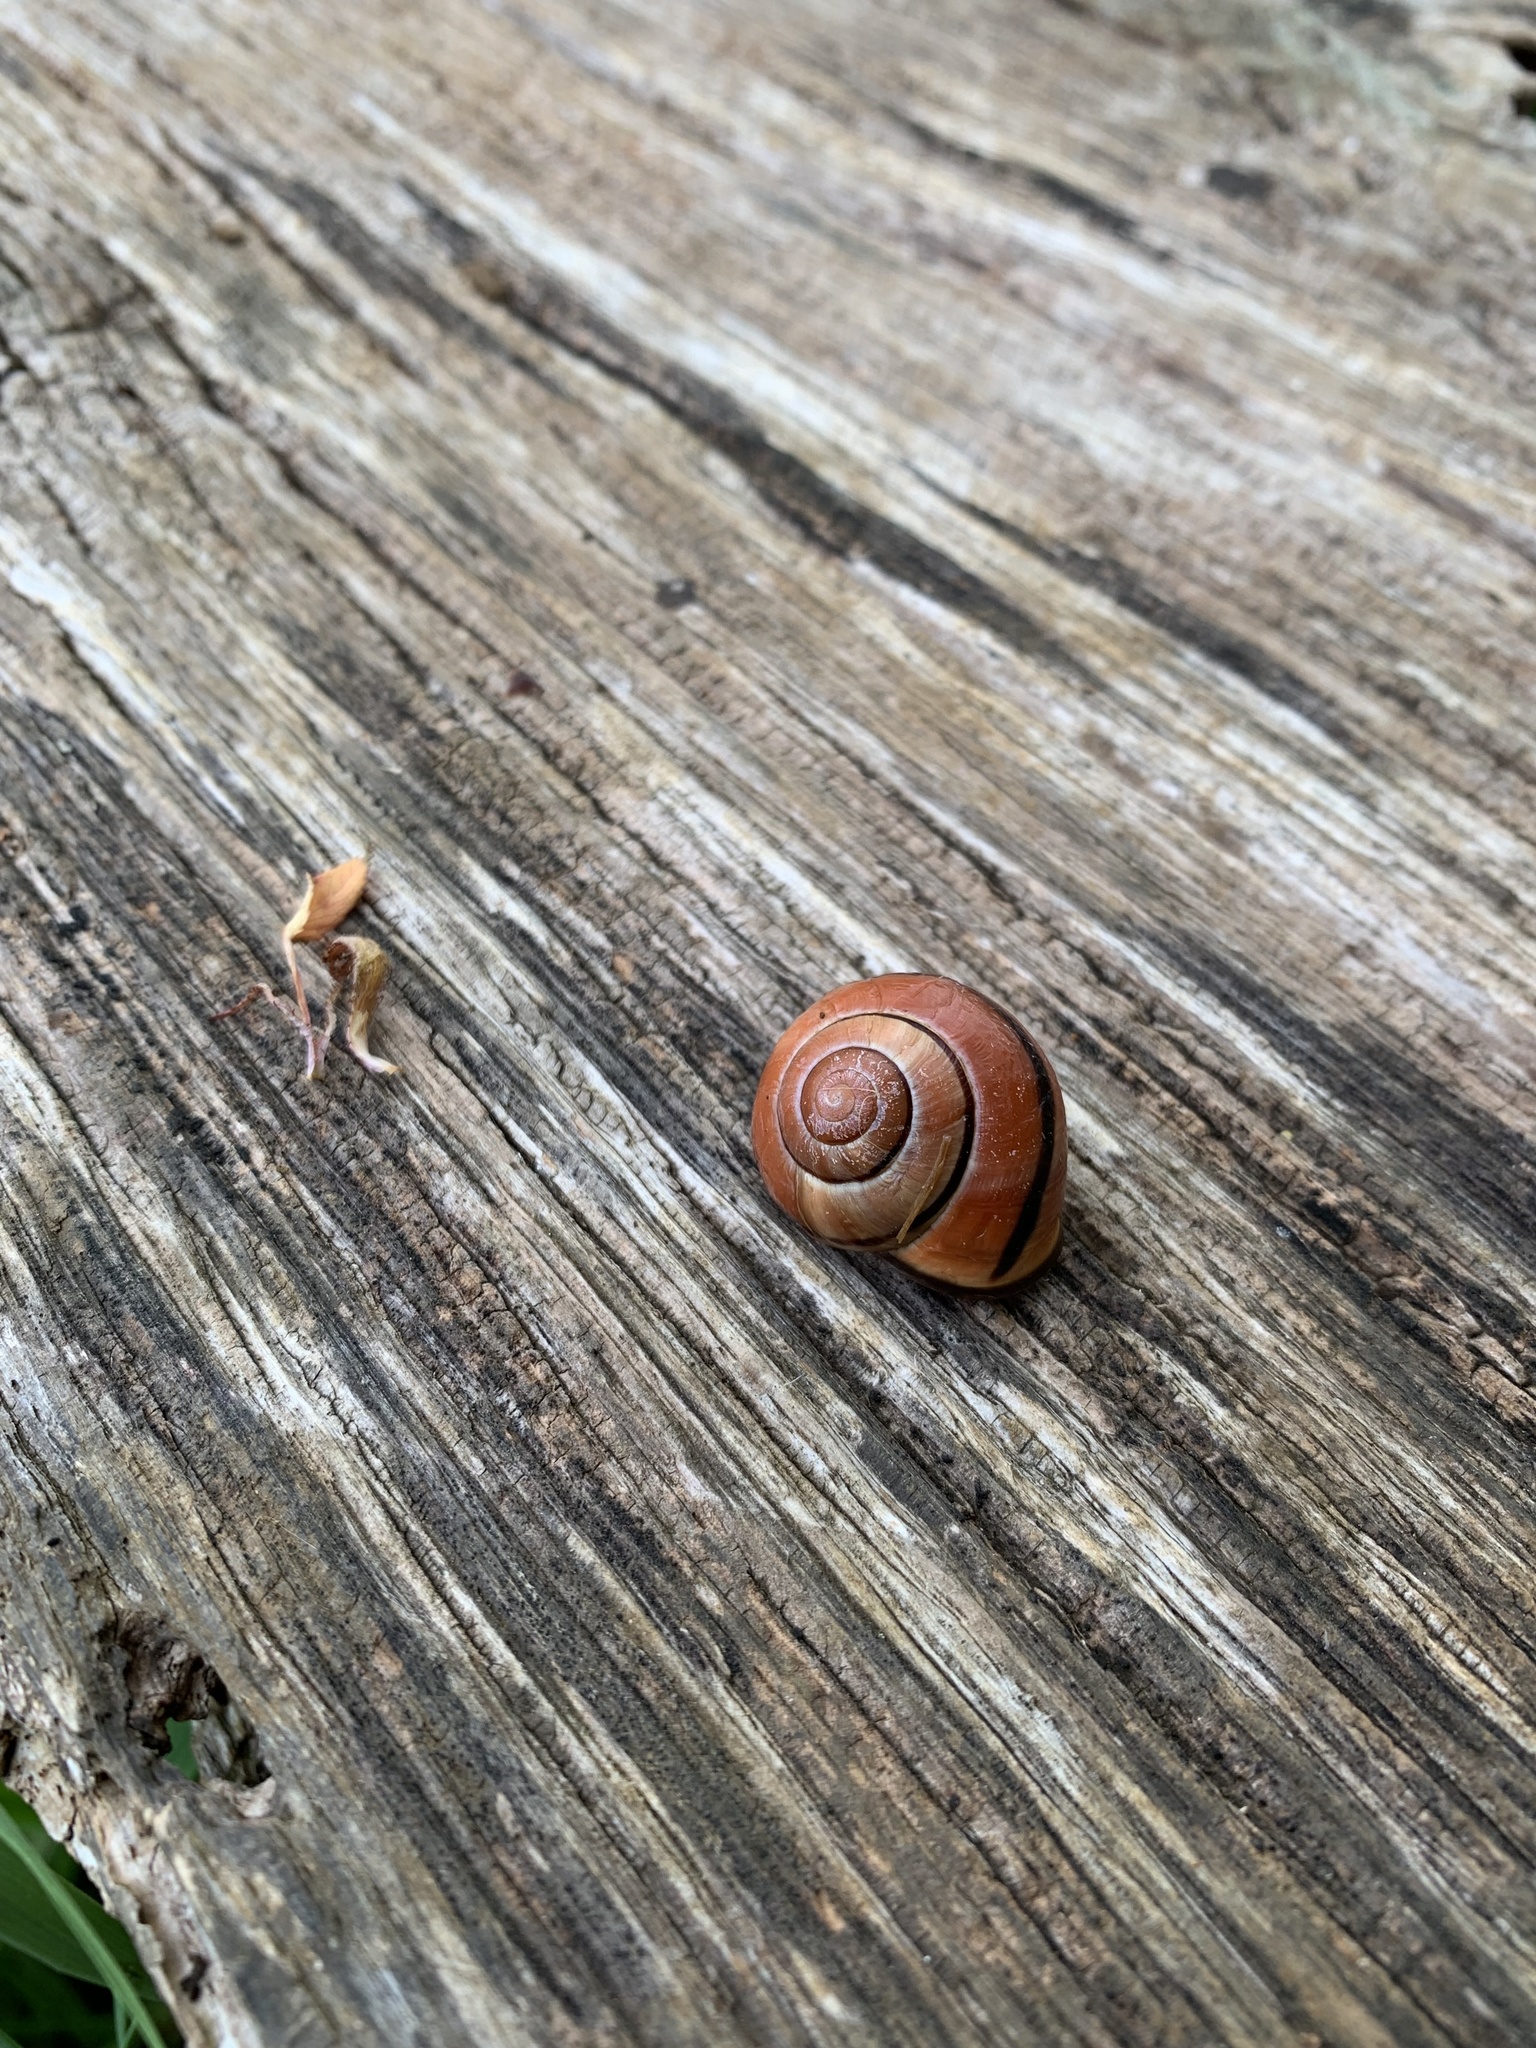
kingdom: Animalia
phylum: Mollusca
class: Gastropoda
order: Stylommatophora
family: Helicidae
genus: Cepaea
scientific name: Cepaea nemoralis
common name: Grovesnail
